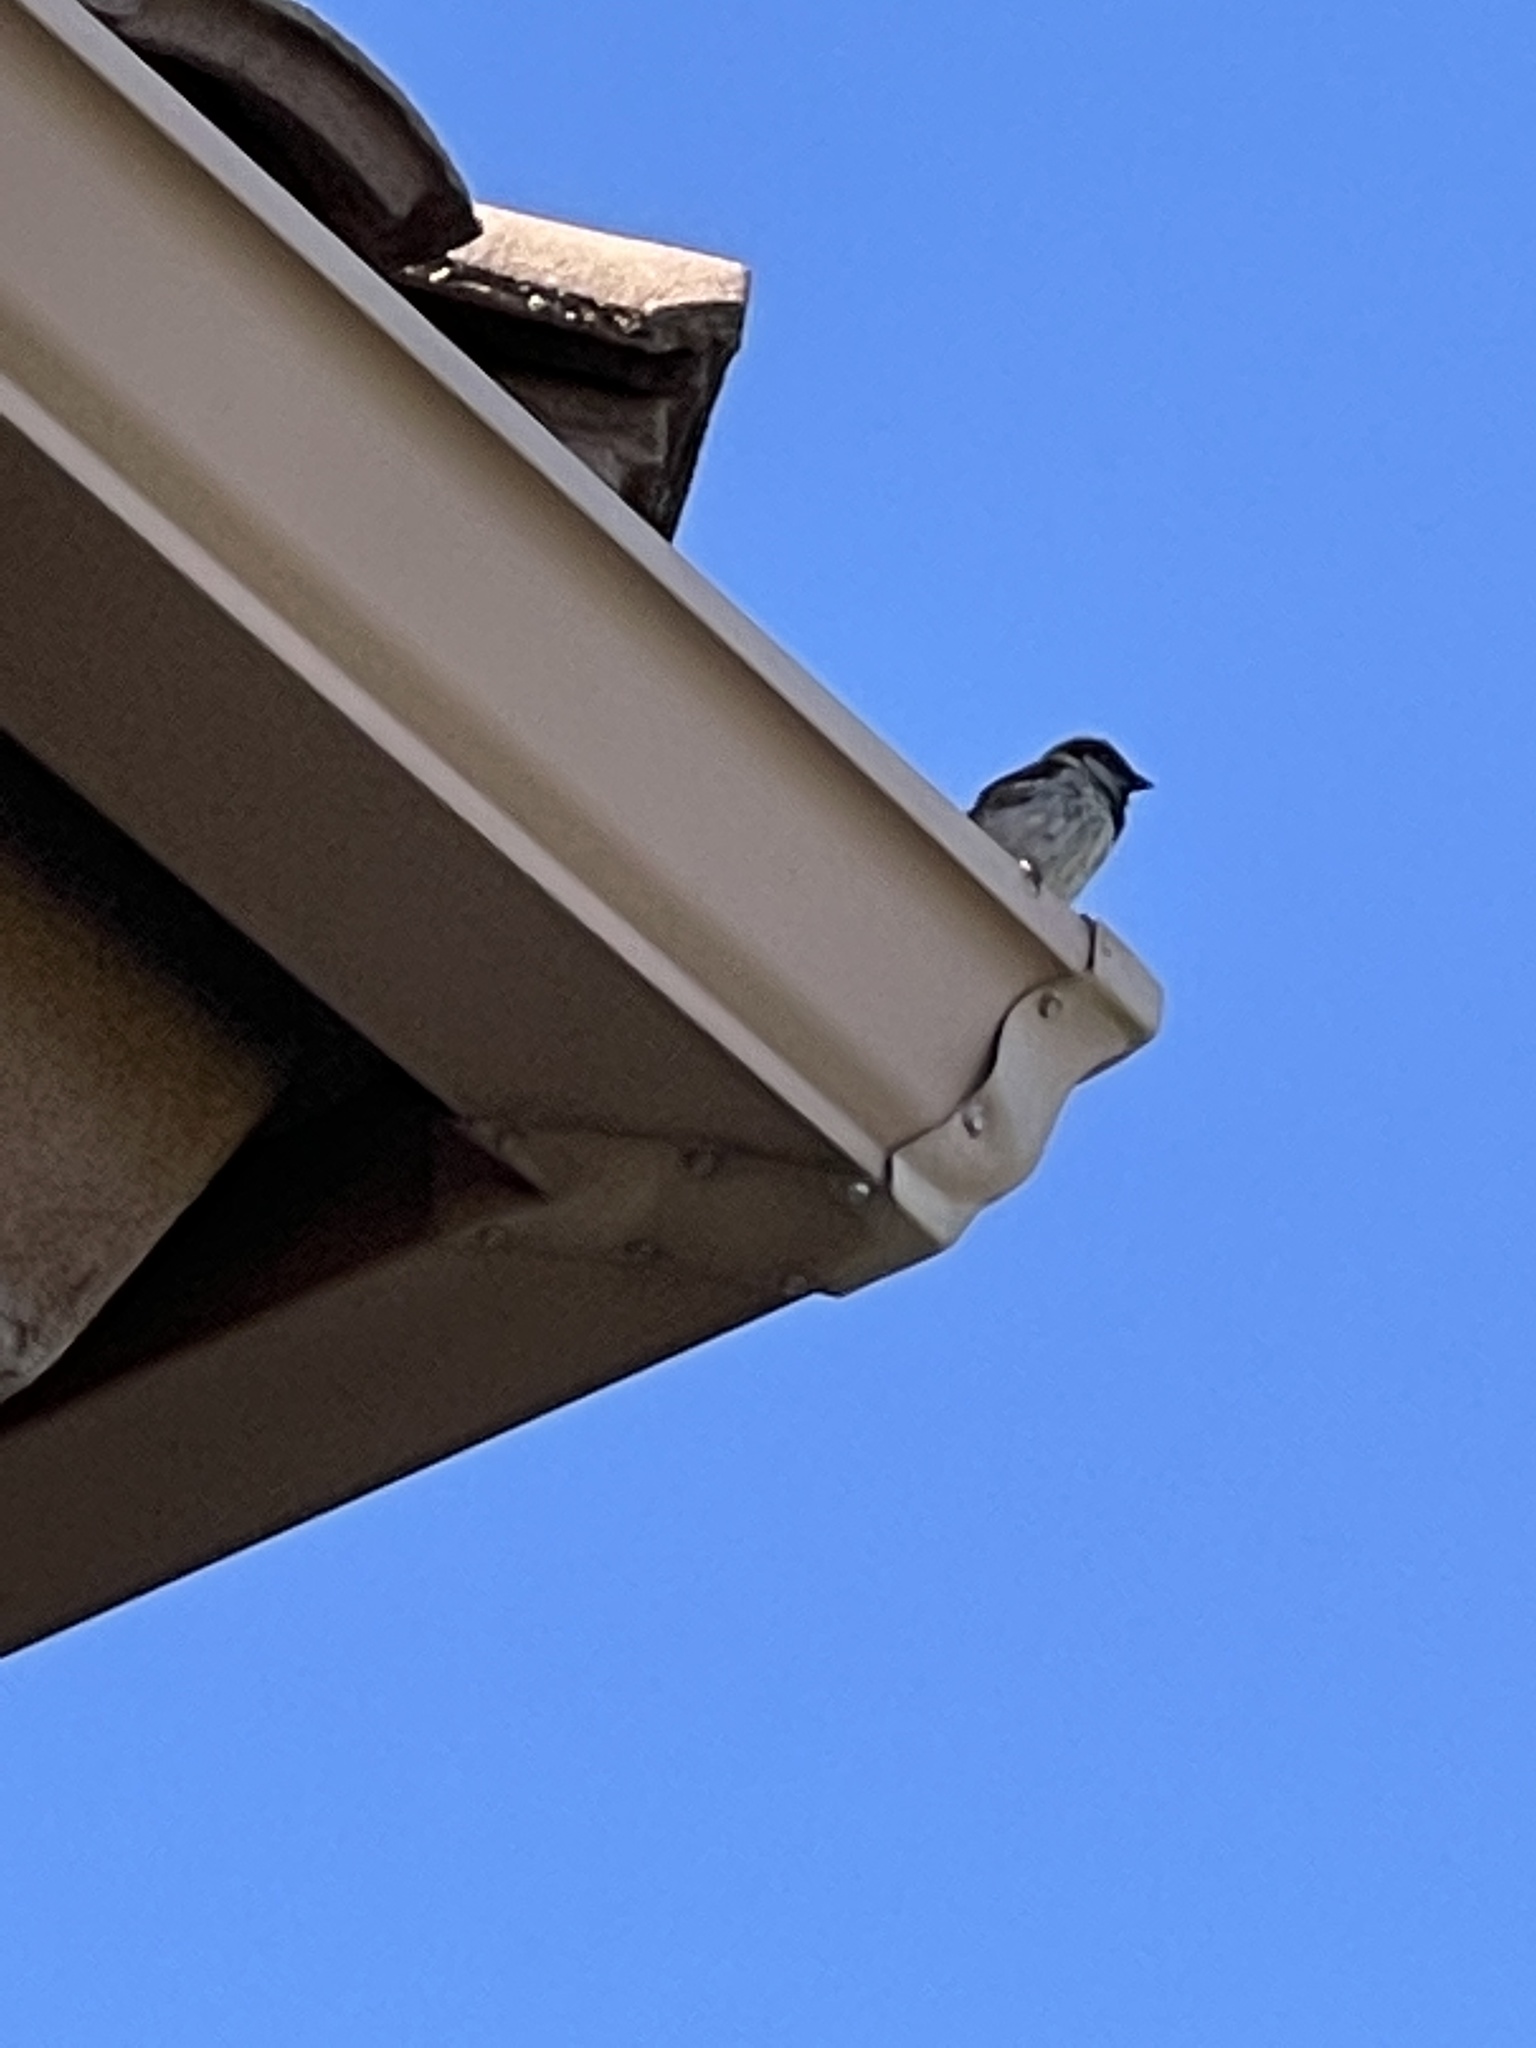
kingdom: Animalia
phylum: Chordata
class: Aves
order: Passeriformes
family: Passeridae
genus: Passer
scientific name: Passer domesticus
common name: House sparrow
